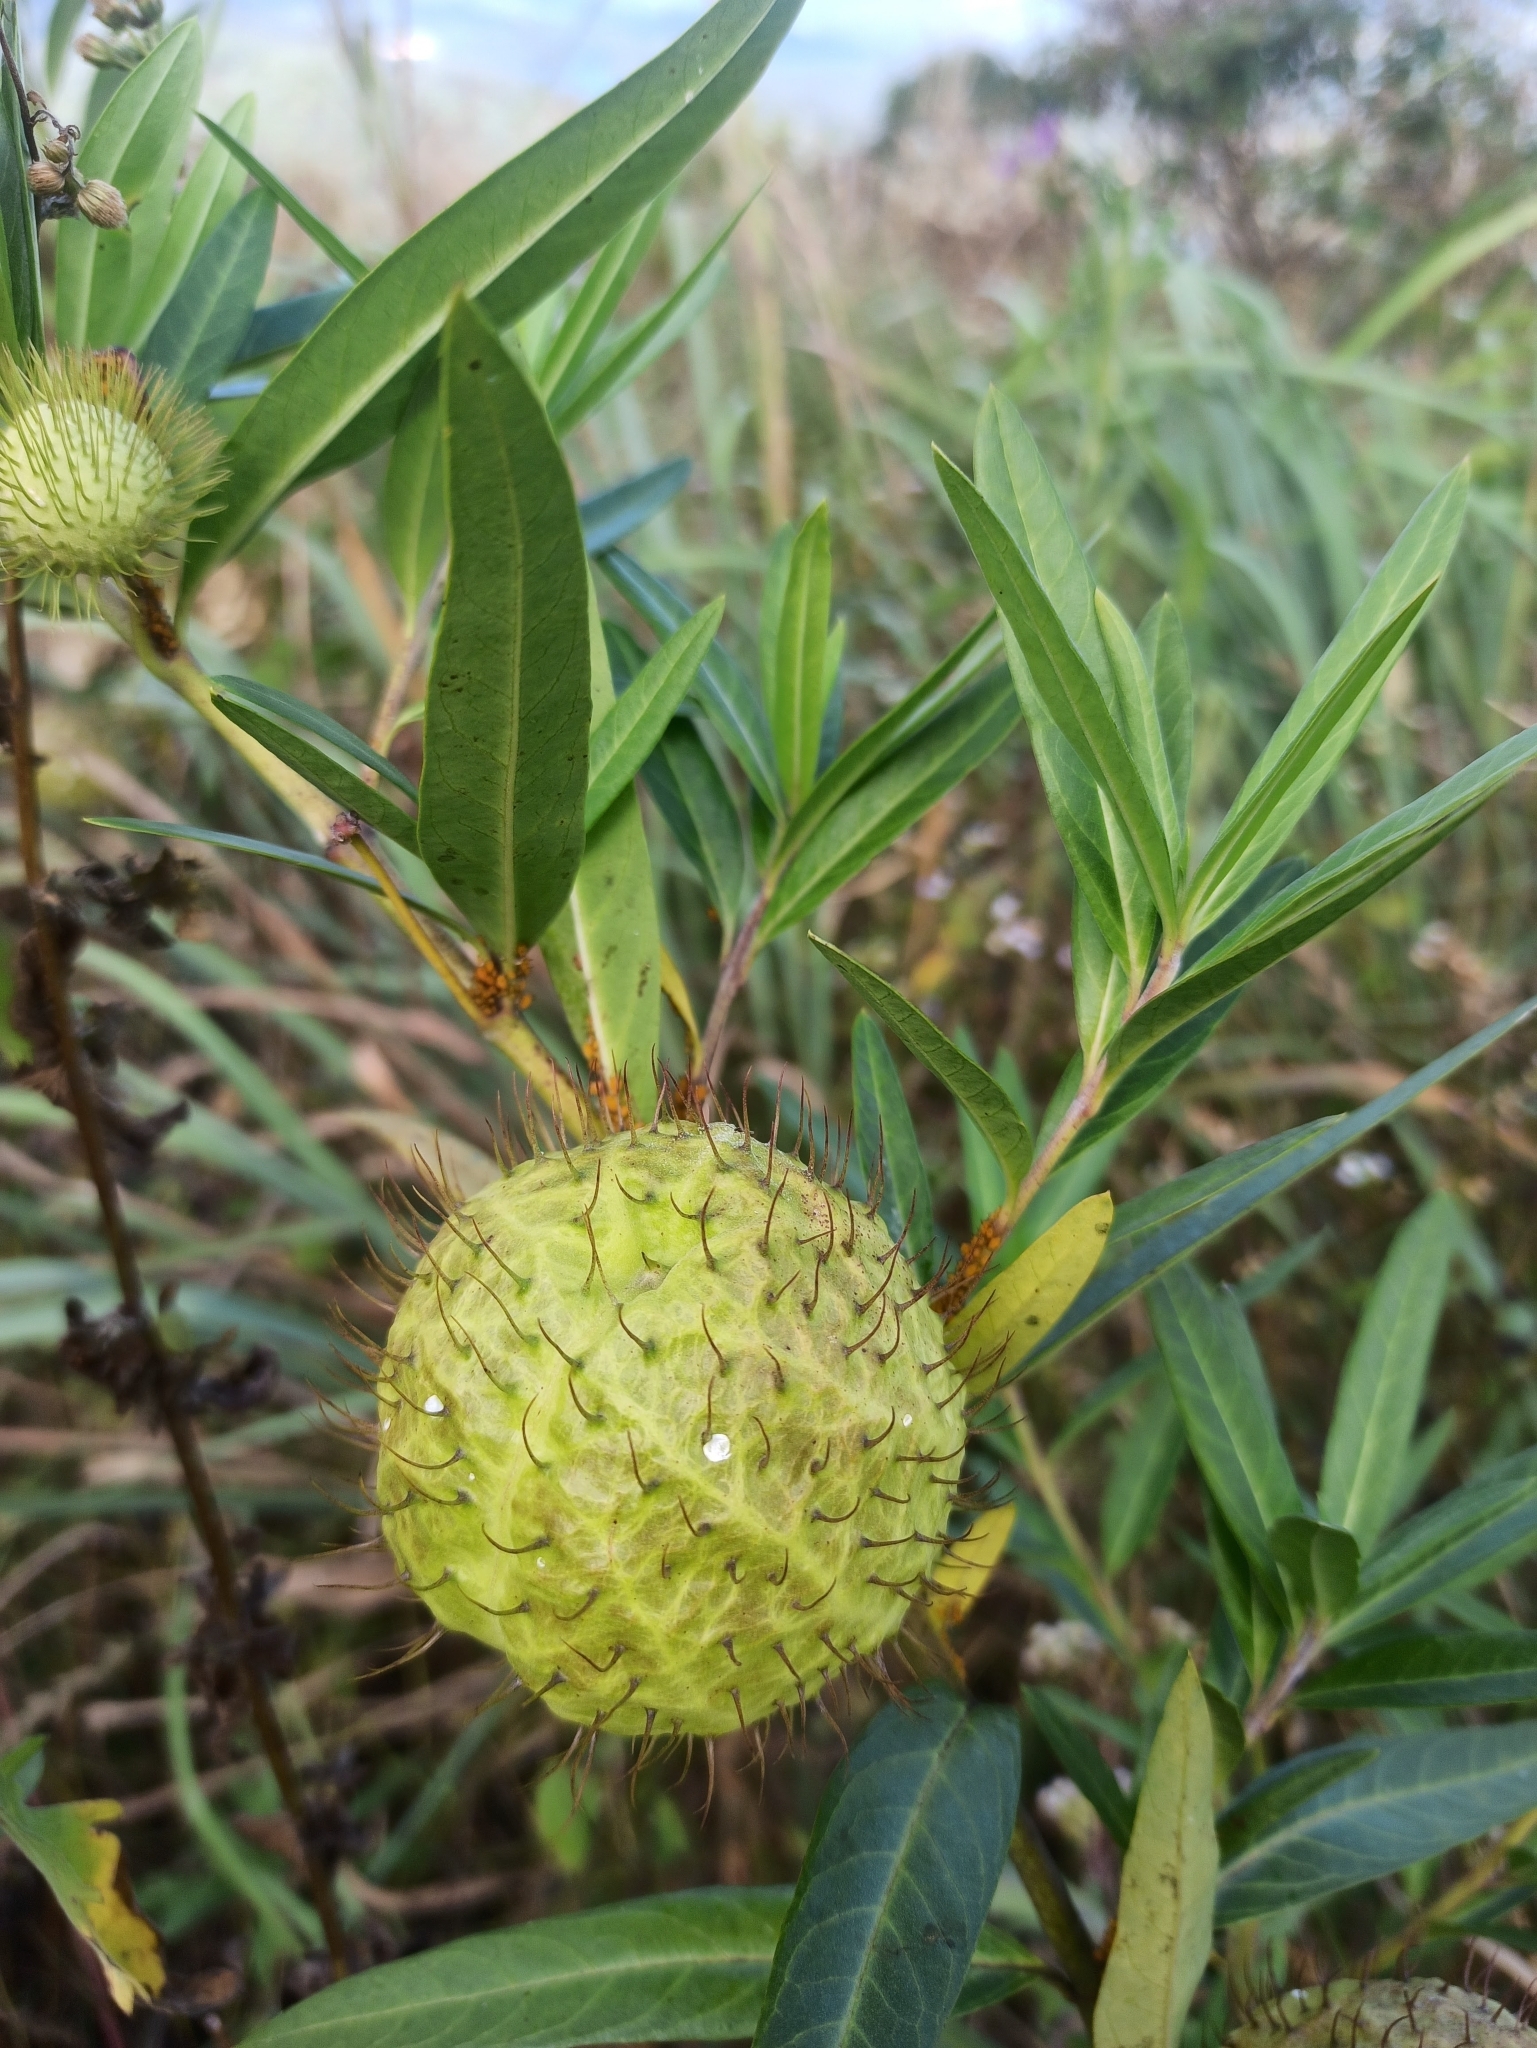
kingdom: Plantae
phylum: Tracheophyta
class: Magnoliopsida
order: Gentianales
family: Apocynaceae
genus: Gomphocarpus
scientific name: Gomphocarpus physocarpus
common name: Balloon cotton bush
